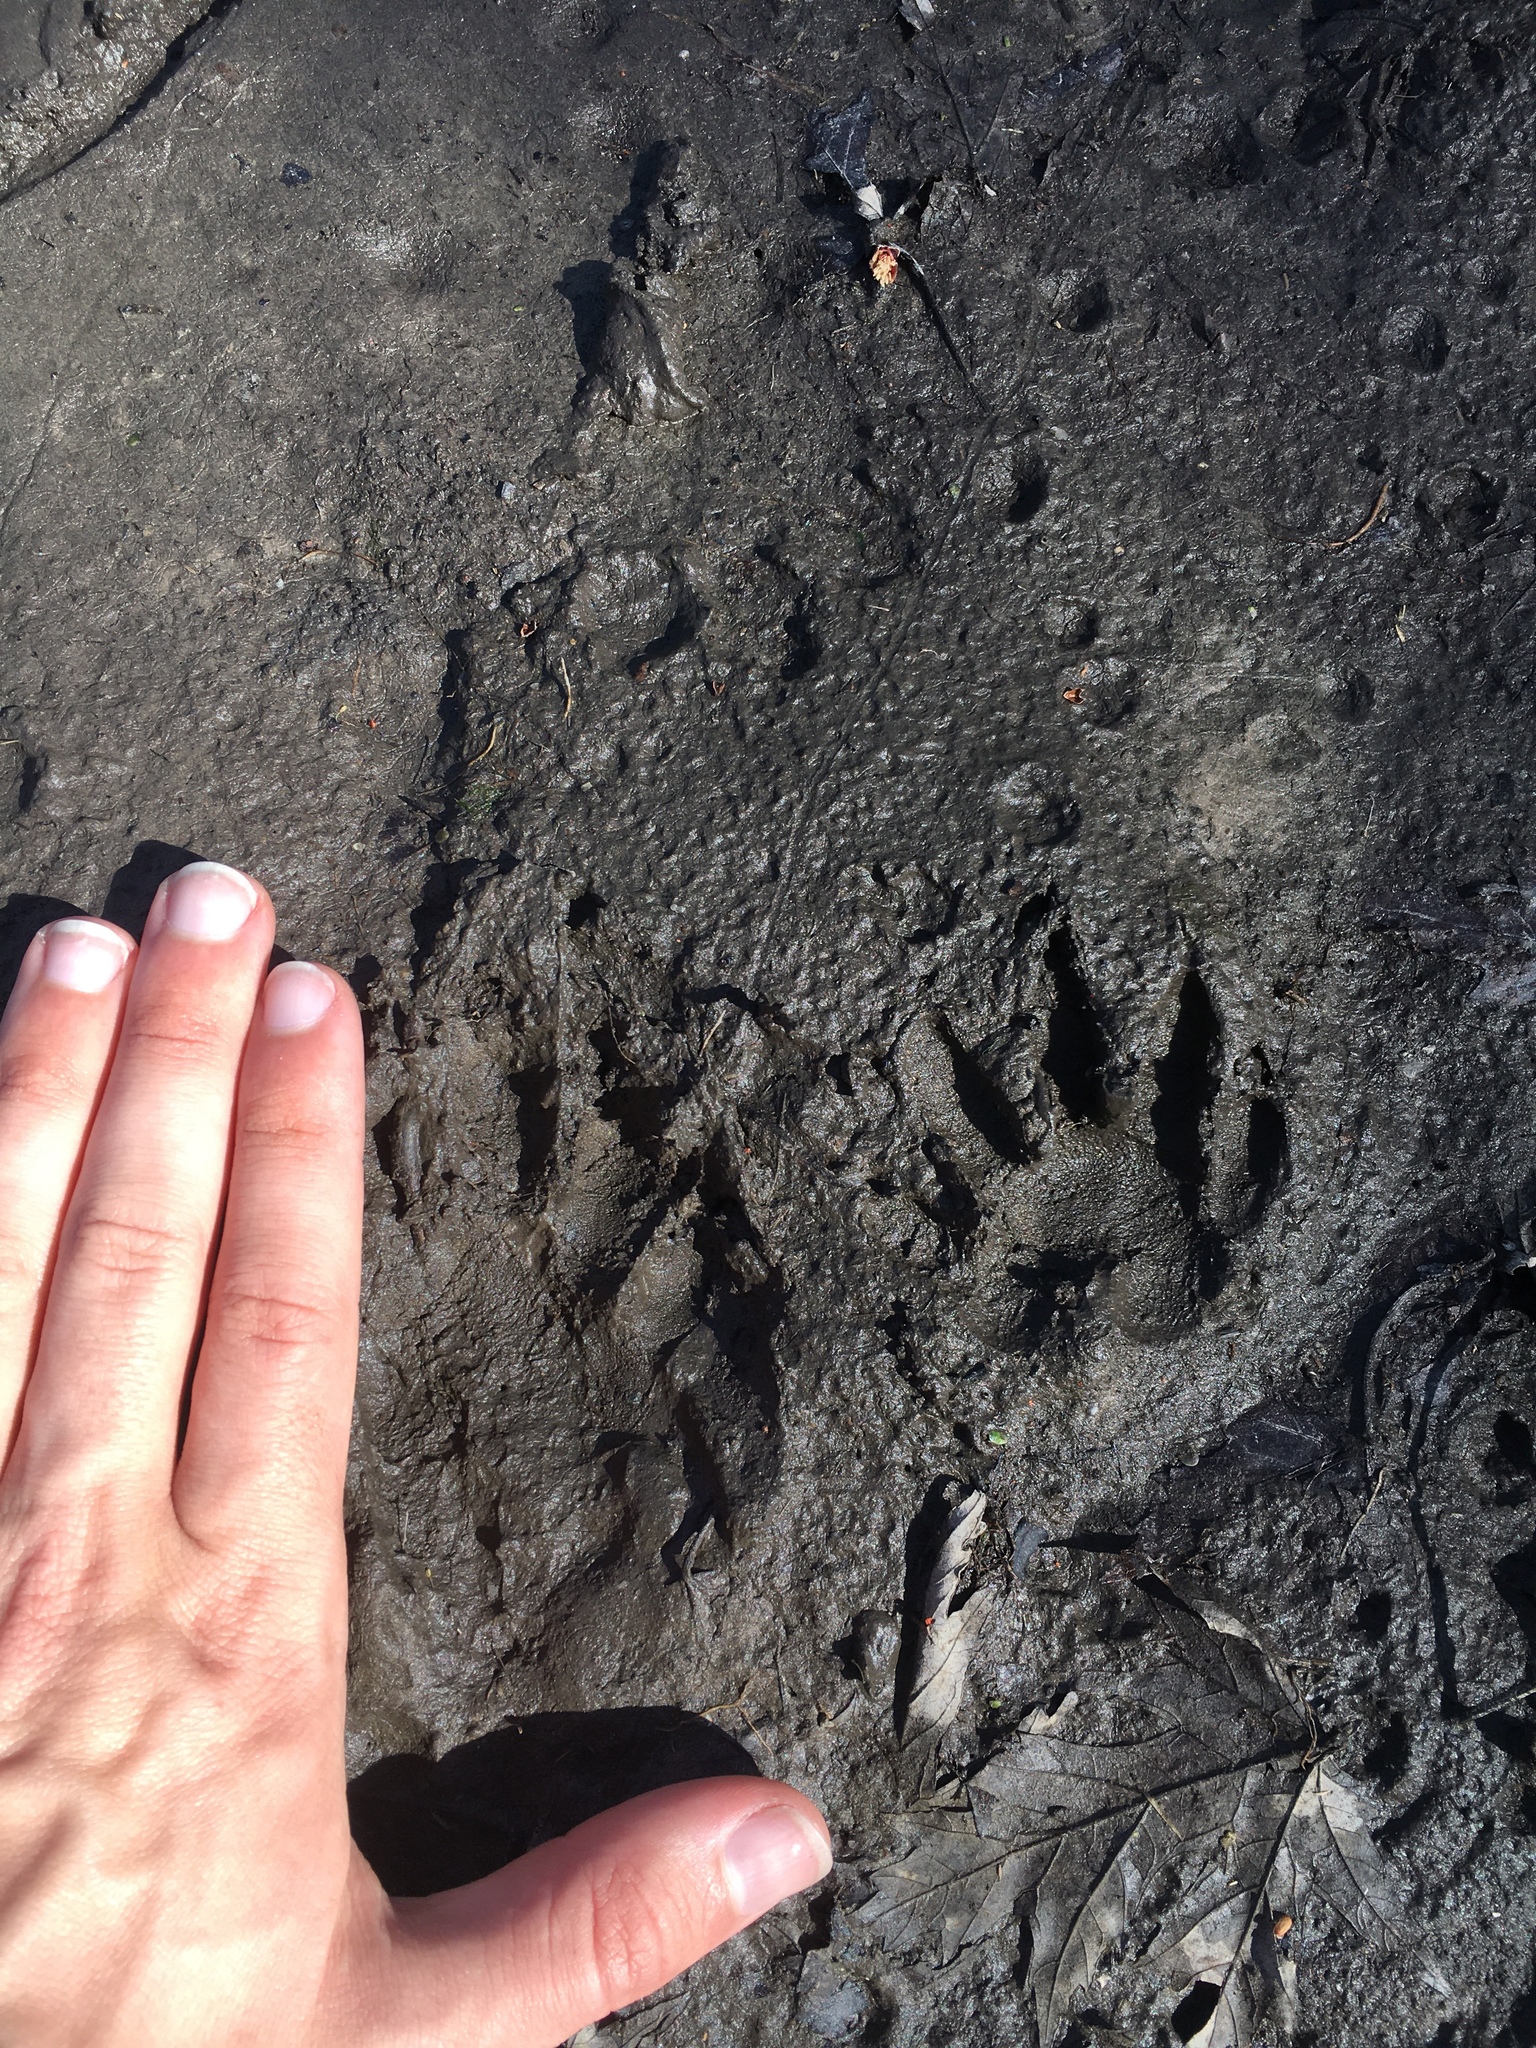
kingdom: Animalia
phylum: Chordata
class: Mammalia
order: Carnivora
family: Procyonidae
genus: Procyon
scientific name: Procyon lotor
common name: Raccoon
